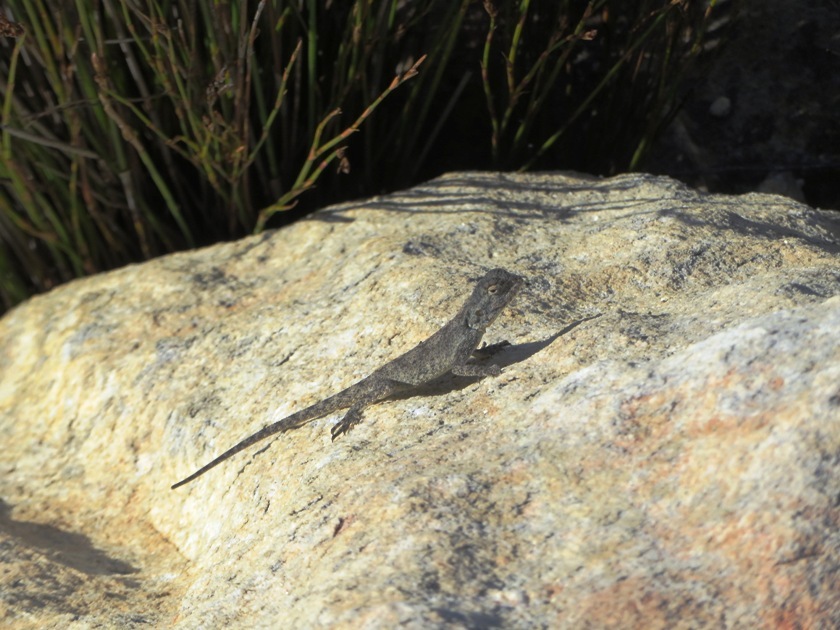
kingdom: Animalia
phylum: Chordata
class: Squamata
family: Agamidae
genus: Agama
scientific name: Agama atra
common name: Southern african rock agama
